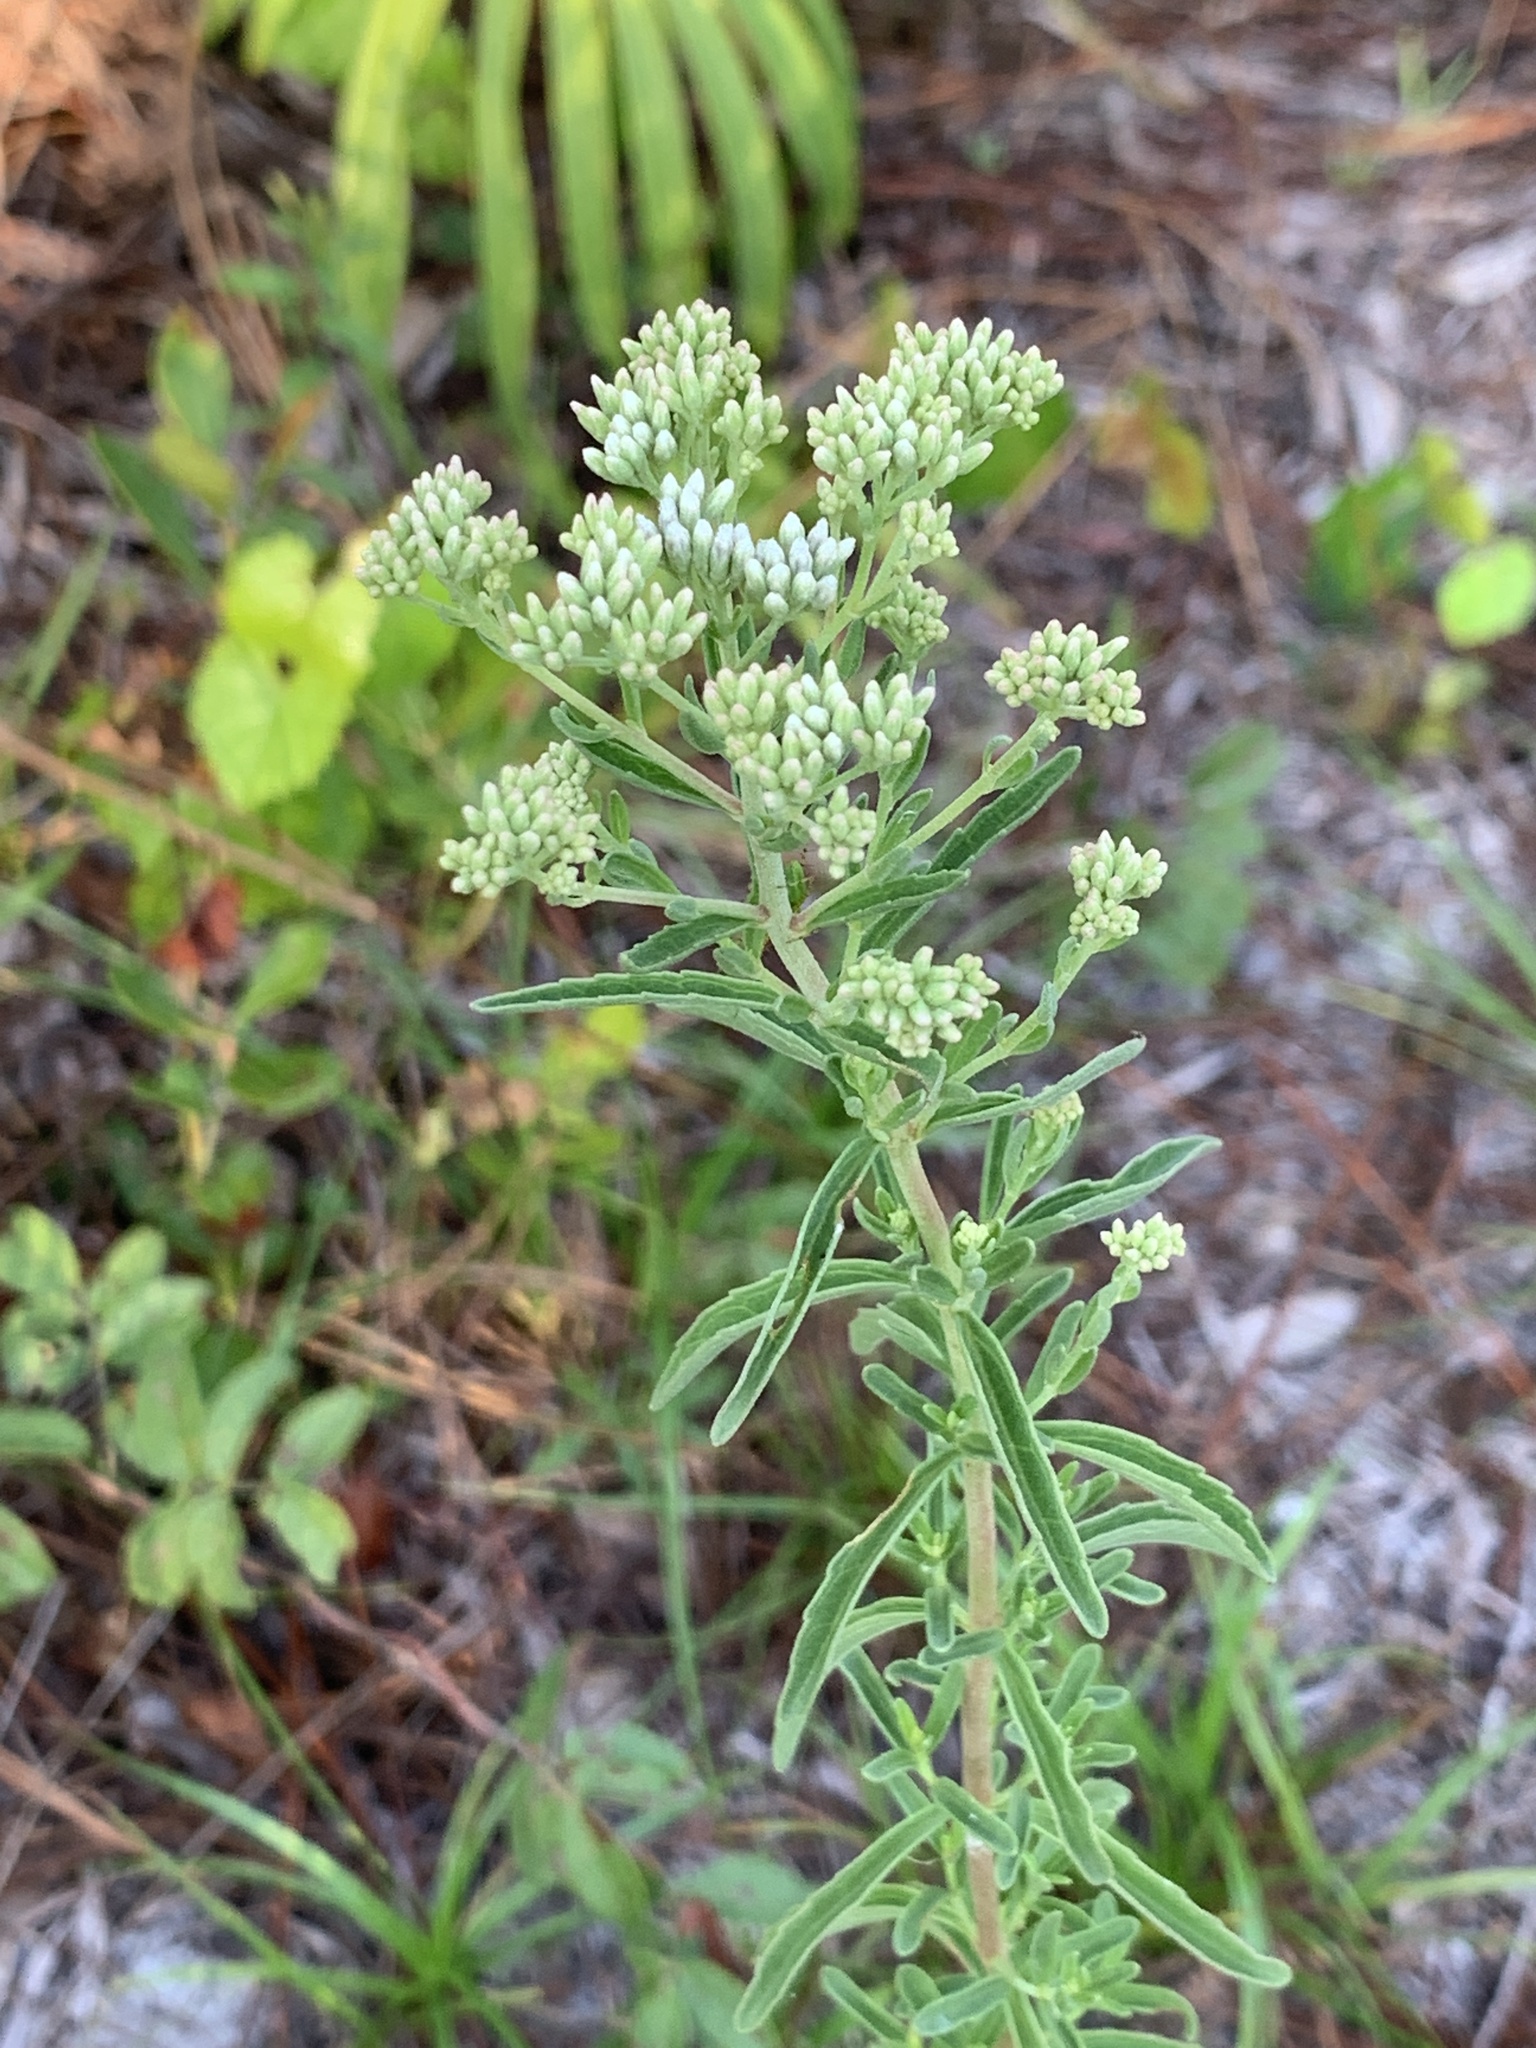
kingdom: Plantae
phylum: Tracheophyta
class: Magnoliopsida
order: Asterales
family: Asteraceae
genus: Eupatorium
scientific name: Eupatorium mohrii
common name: Mohr's thoroughwort
